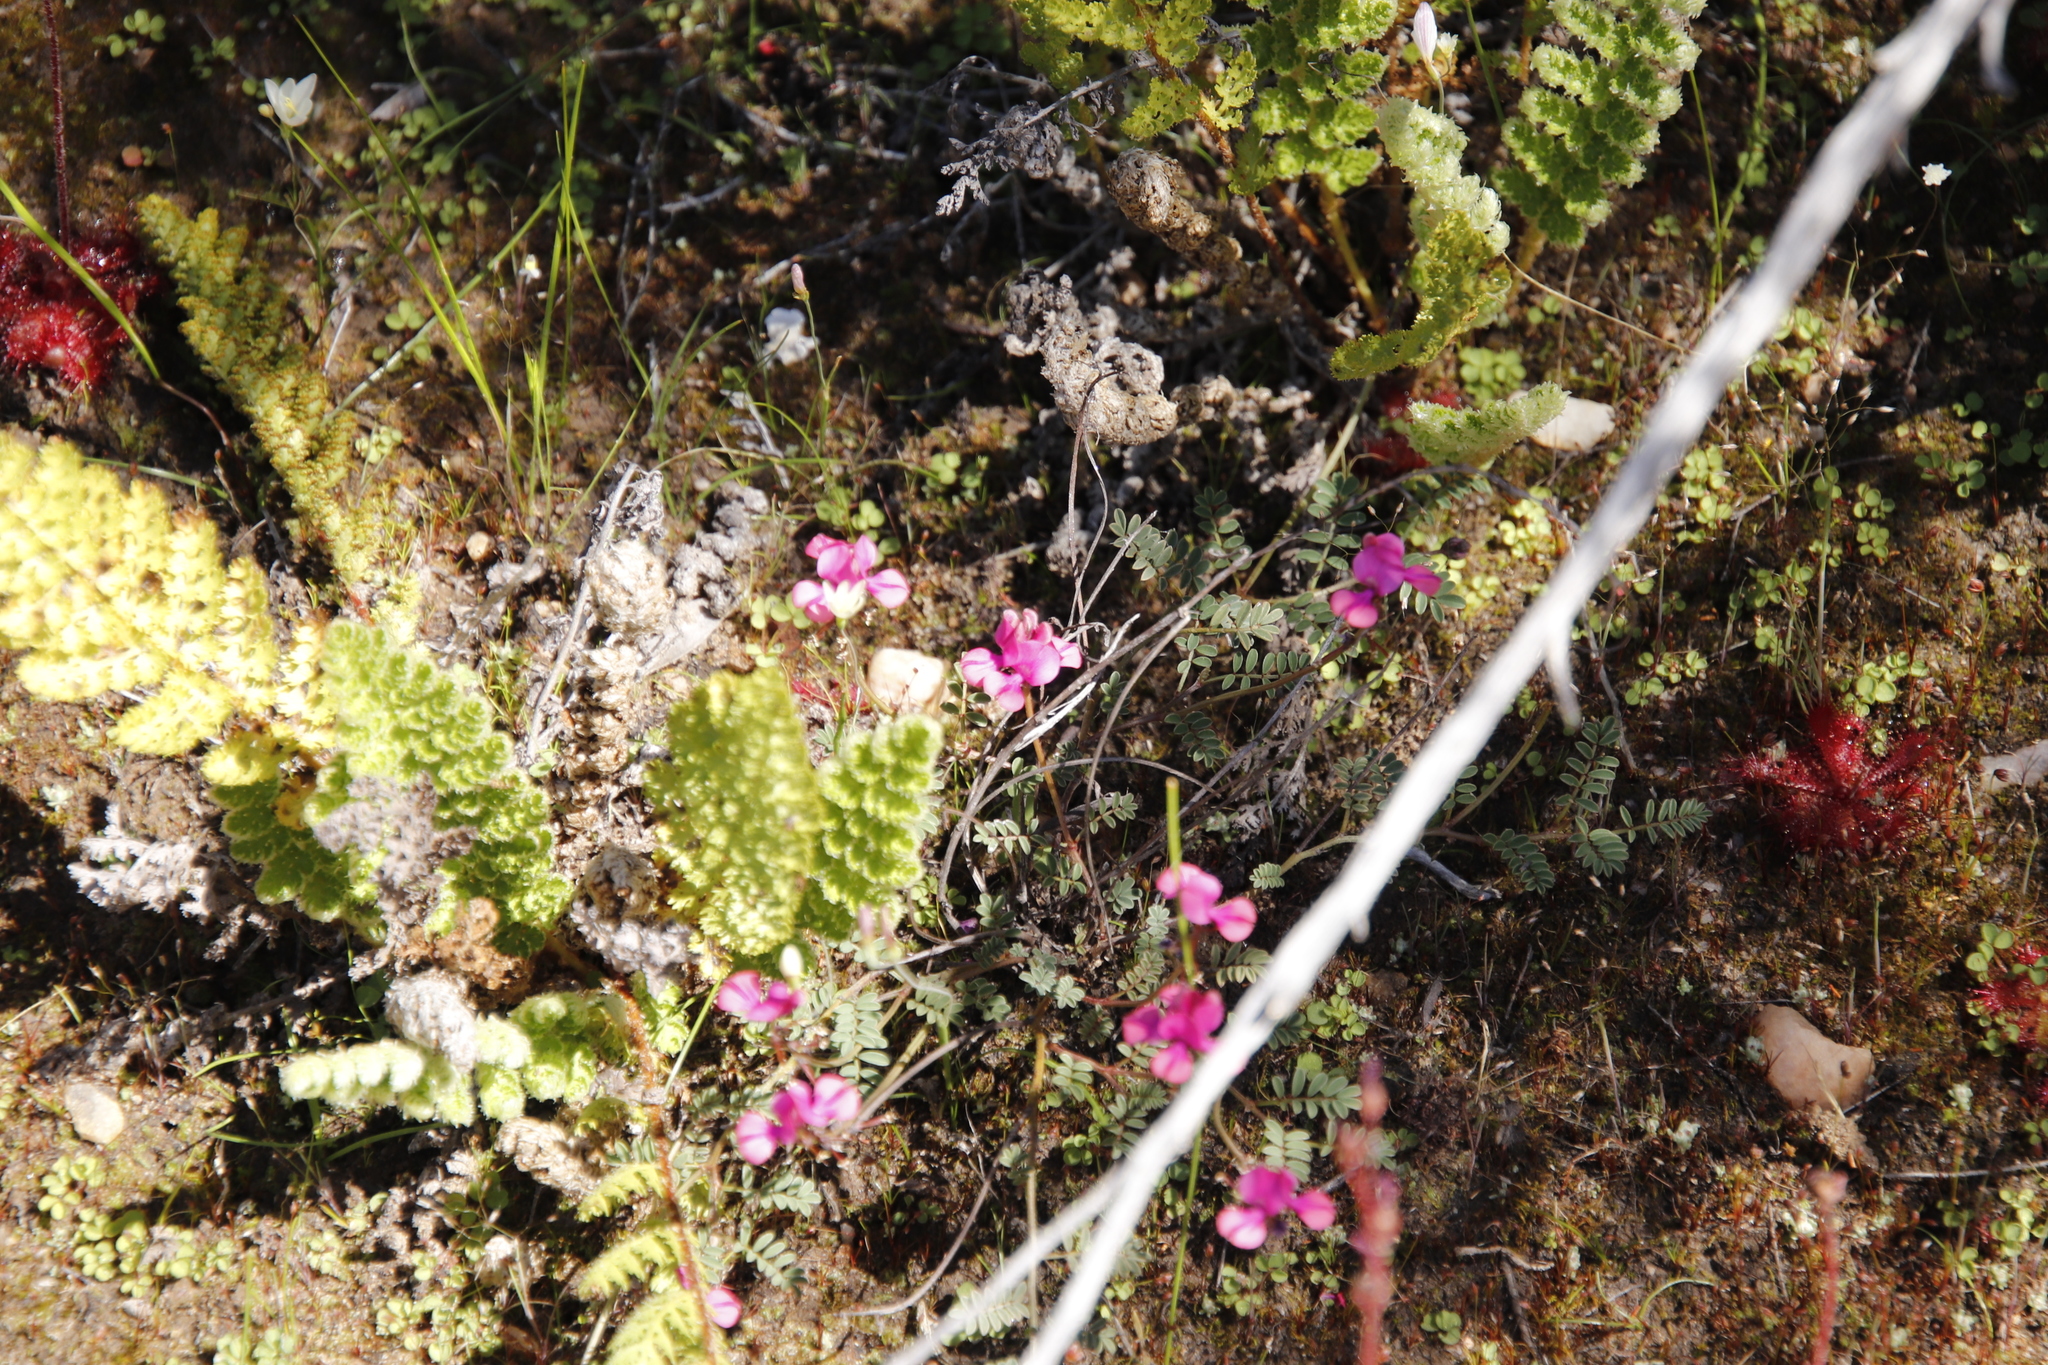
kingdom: Plantae
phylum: Tracheophyta
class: Magnoliopsida
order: Fabales
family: Fabaceae
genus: Indigofera
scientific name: Indigofera
